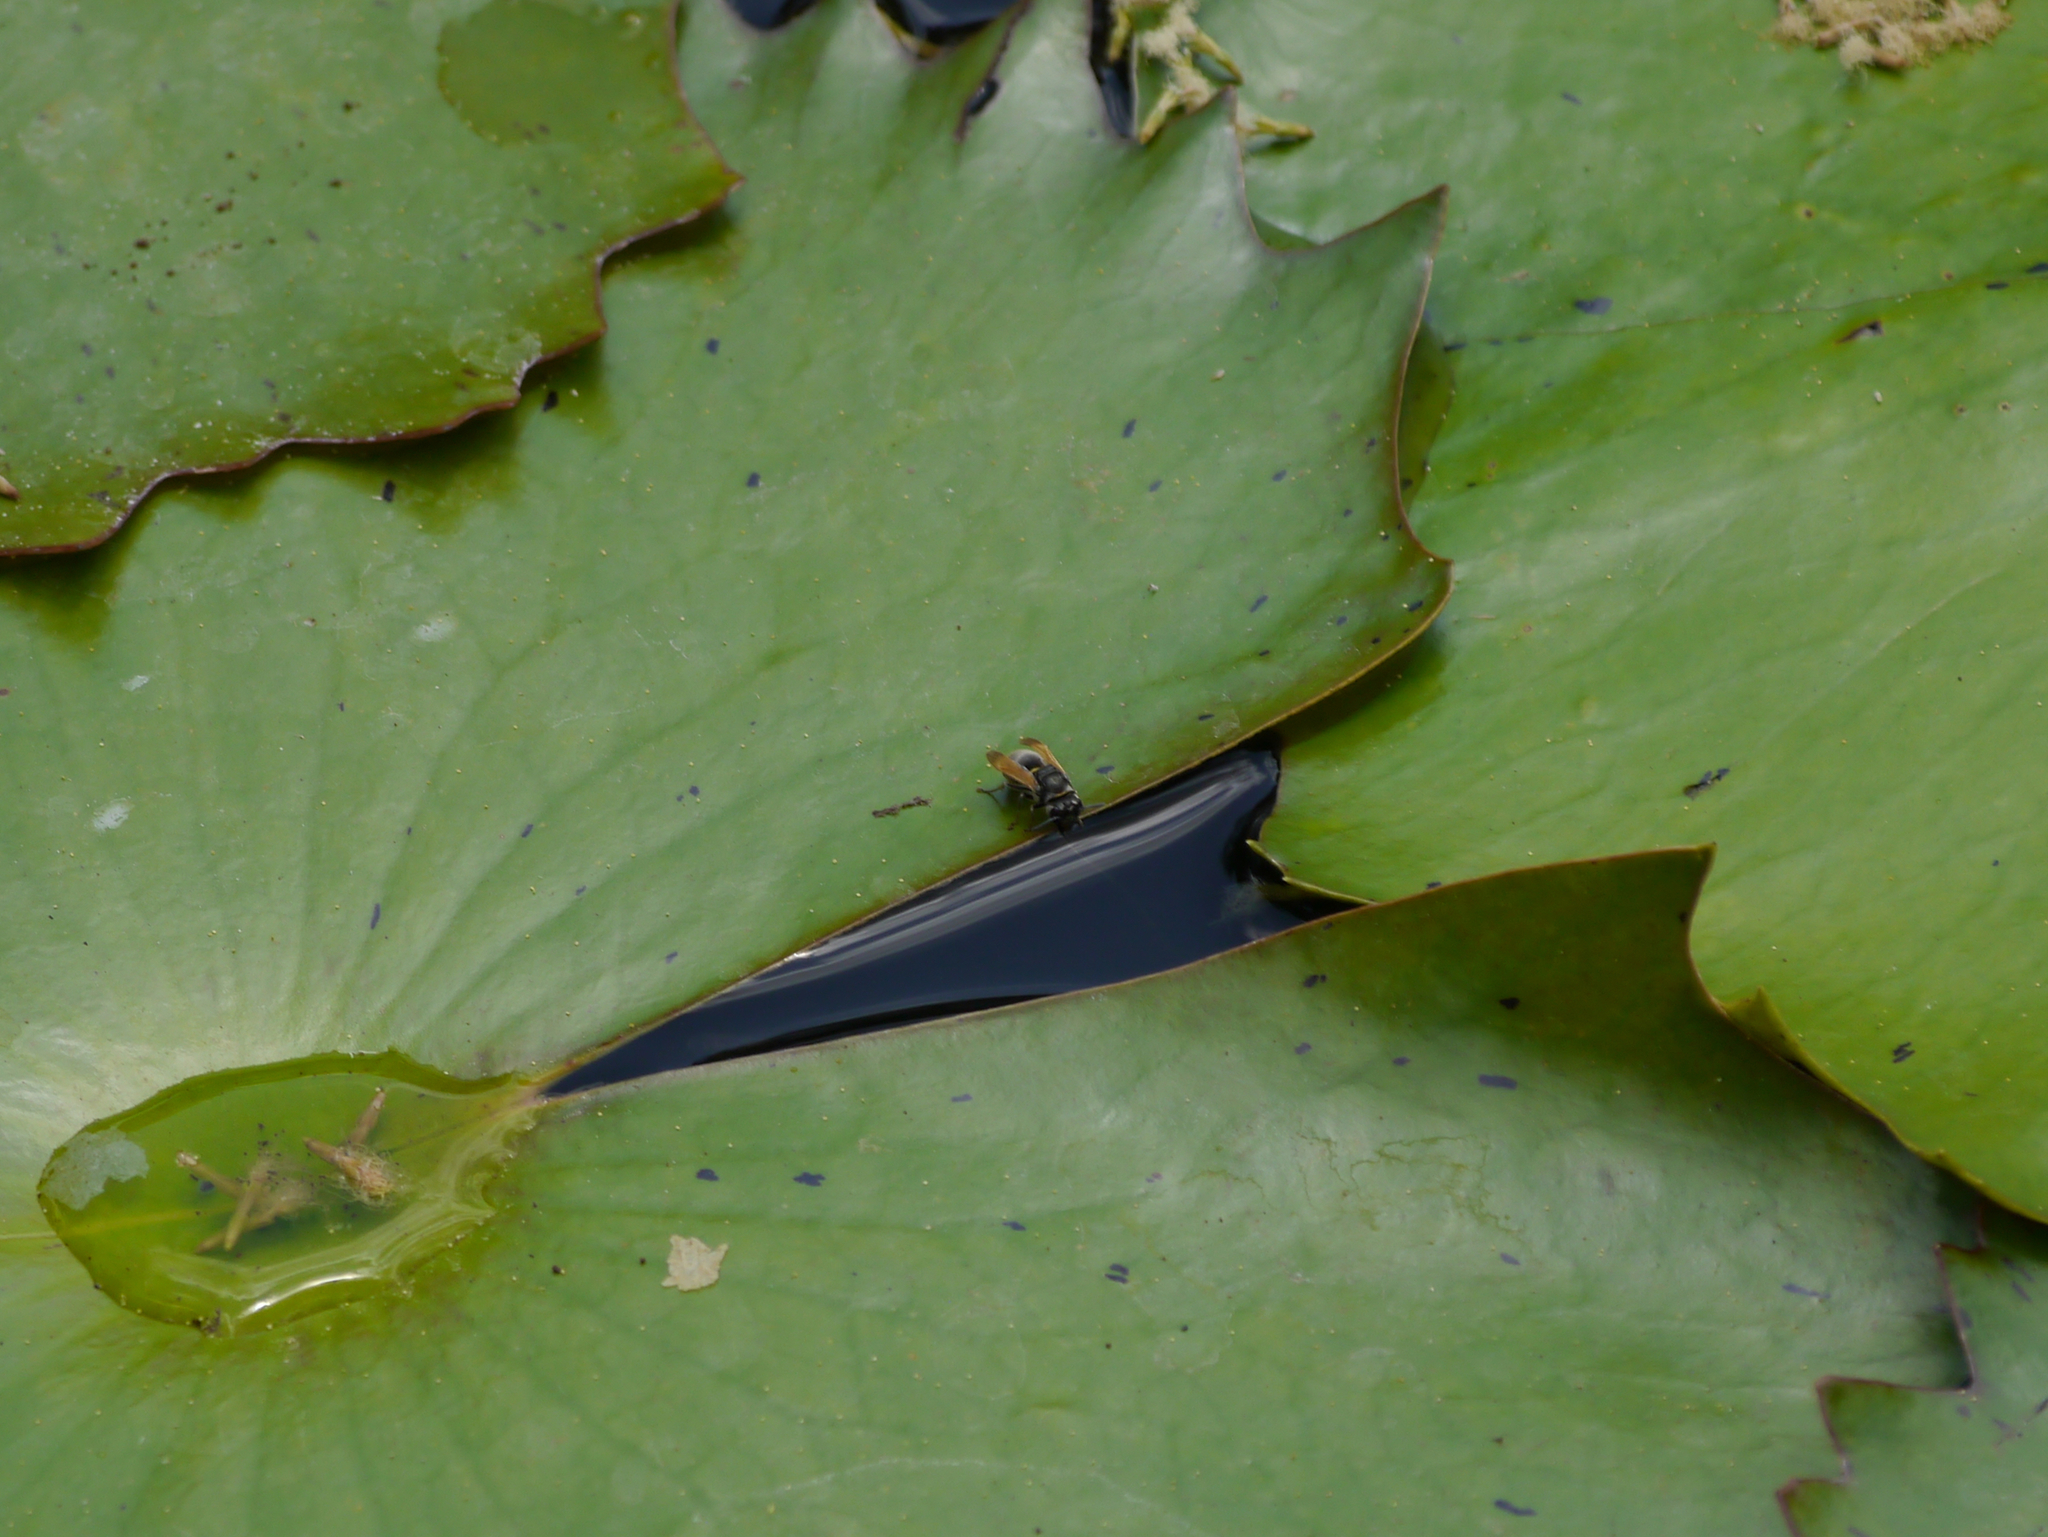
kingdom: Animalia
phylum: Arthropoda
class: Insecta
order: Hymenoptera
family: Vespidae
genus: Brachygastra
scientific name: Brachygastra mellifica
